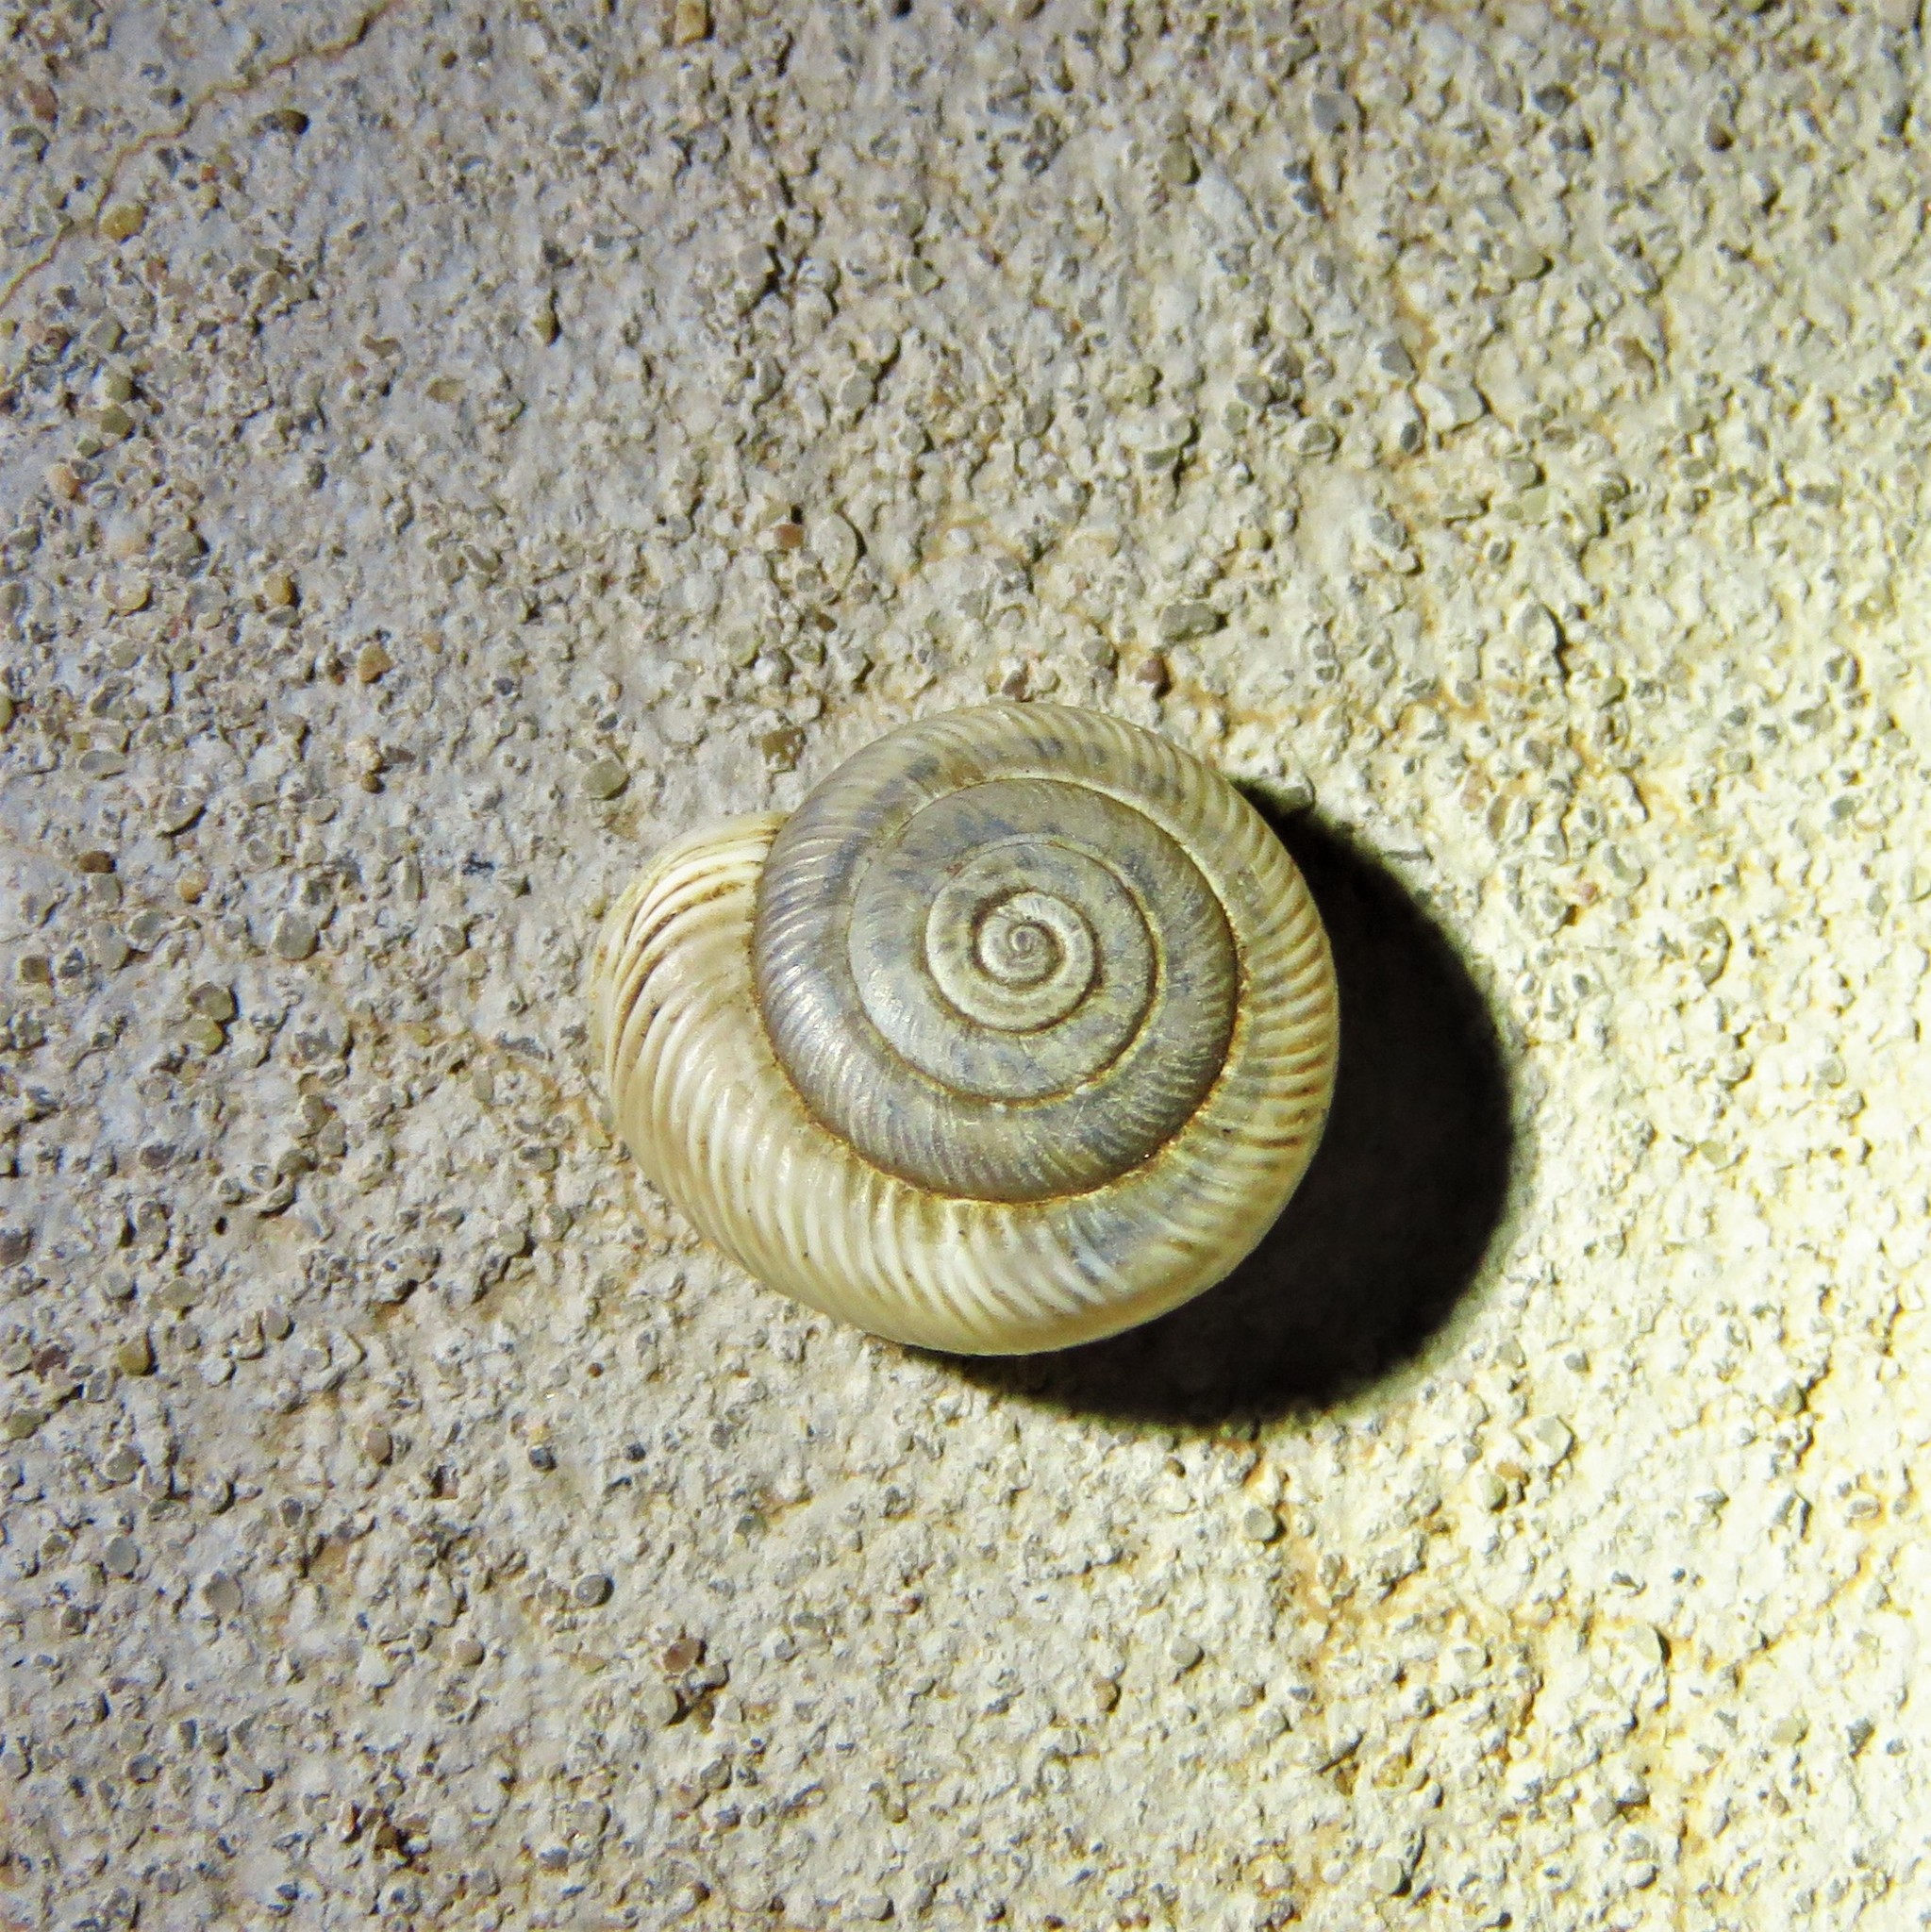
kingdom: Animalia
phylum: Mollusca
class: Gastropoda
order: Stylommatophora
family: Polygyridae
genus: Linisa
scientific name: Linisa texasiana
